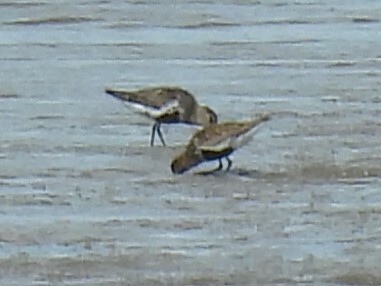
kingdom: Animalia
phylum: Chordata
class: Aves
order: Charadriiformes
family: Scolopacidae
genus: Calidris
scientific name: Calidris alpina
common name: Dunlin
